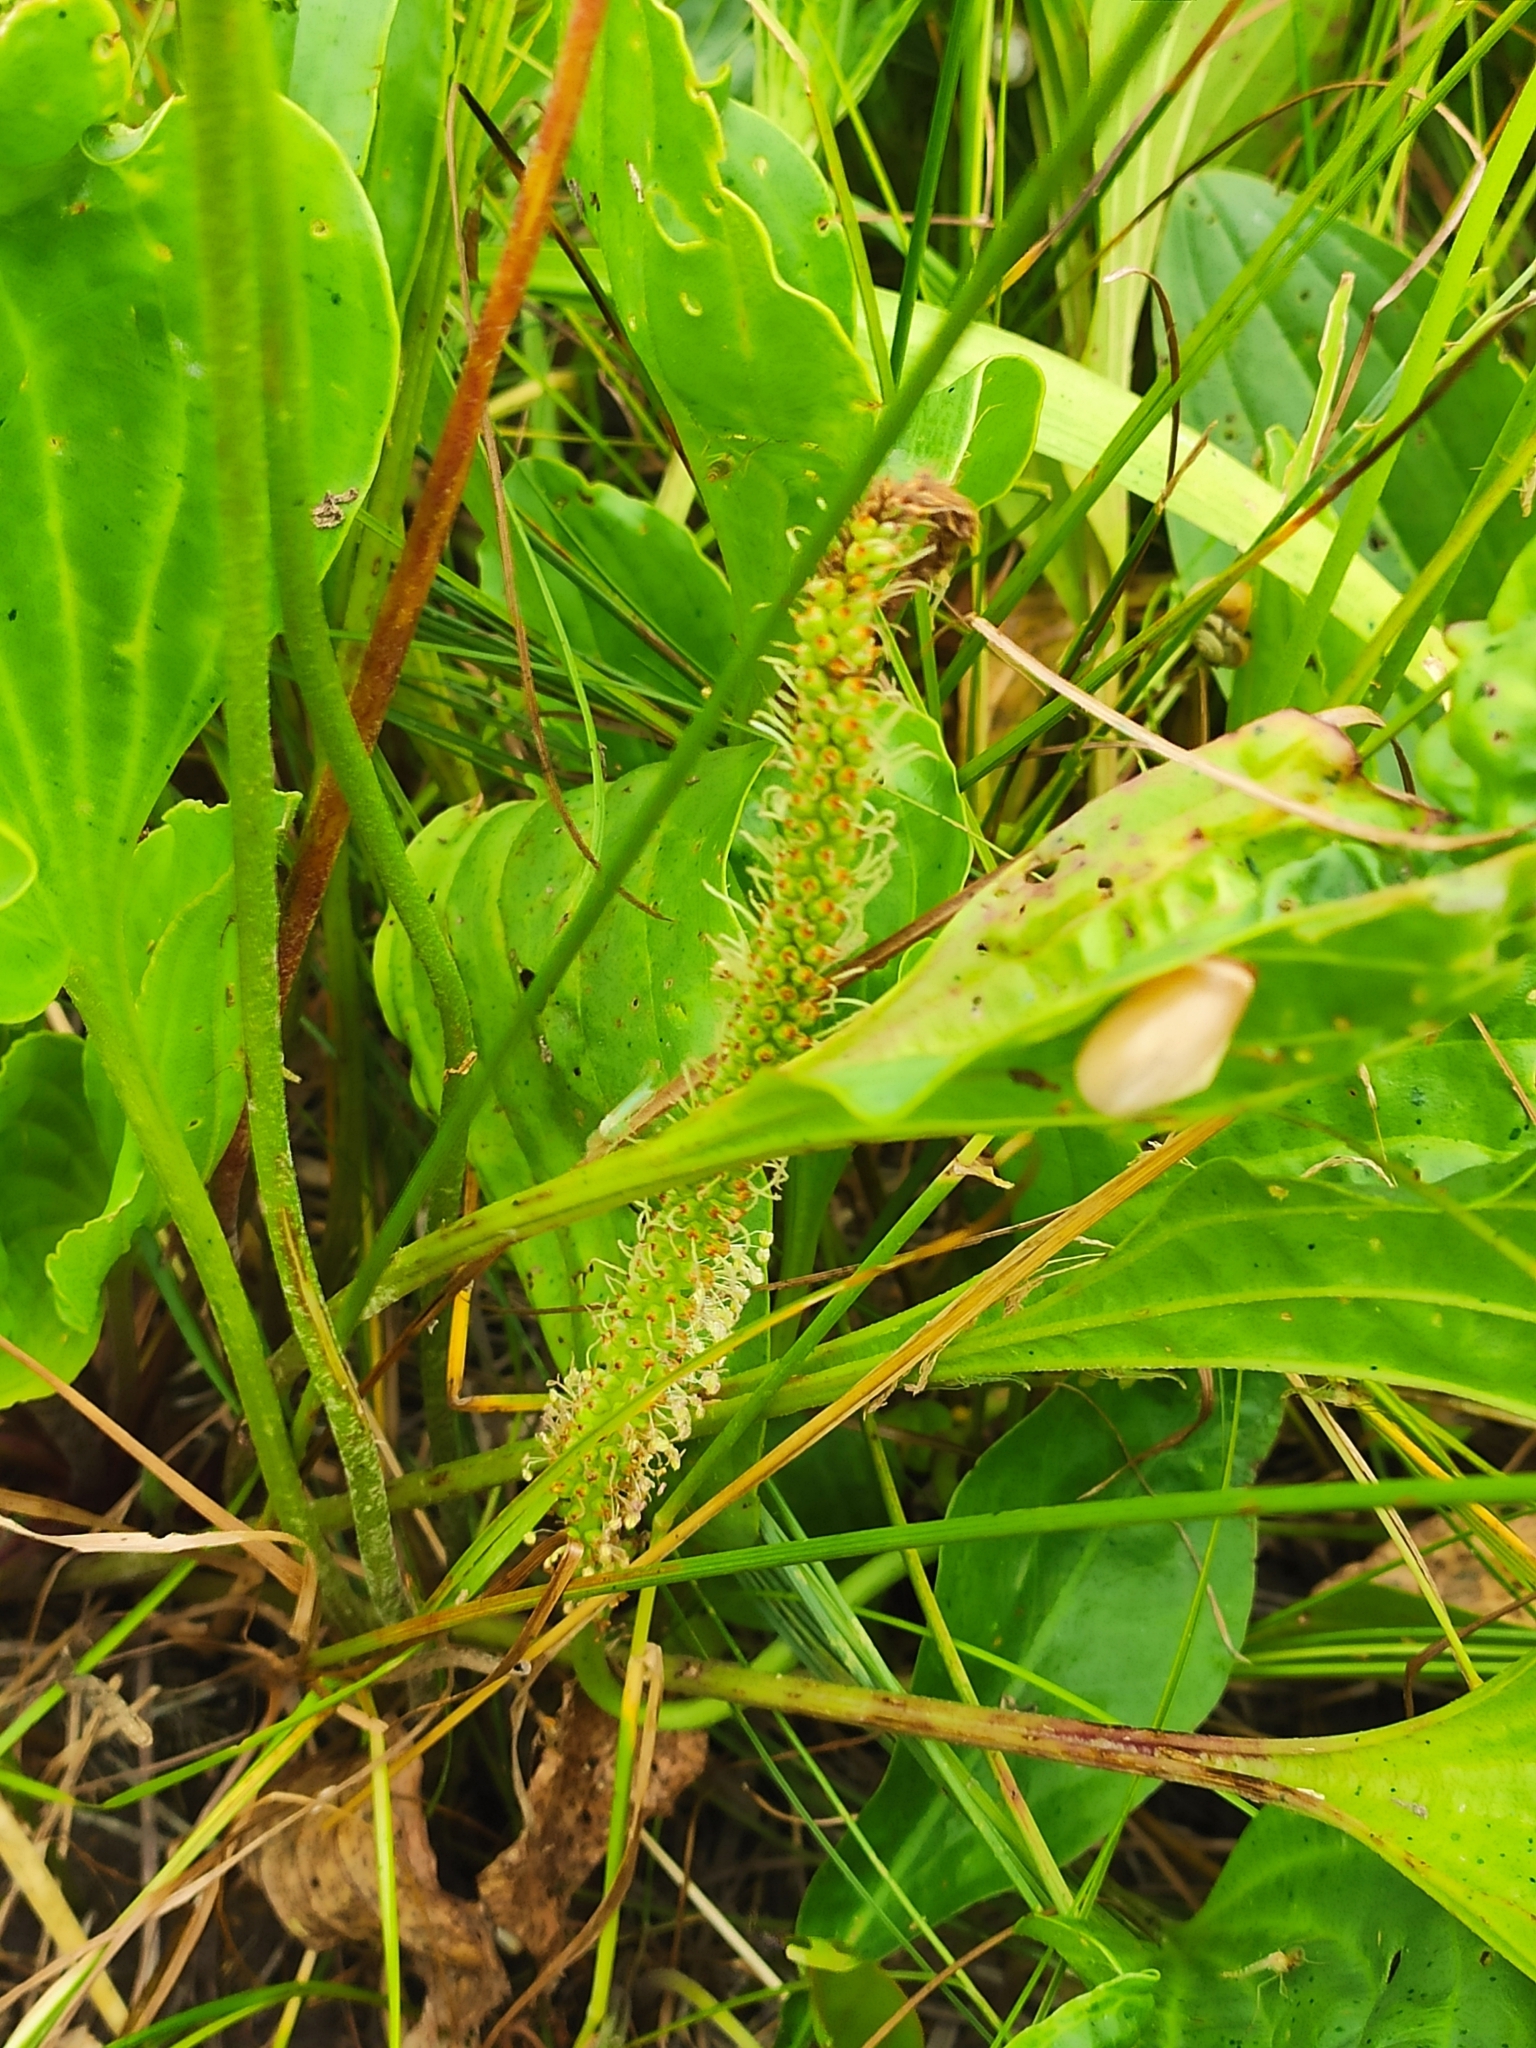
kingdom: Plantae
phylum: Tracheophyta
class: Magnoliopsida
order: Lamiales
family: Plantaginaceae
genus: Plantago
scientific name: Plantago cornuti
